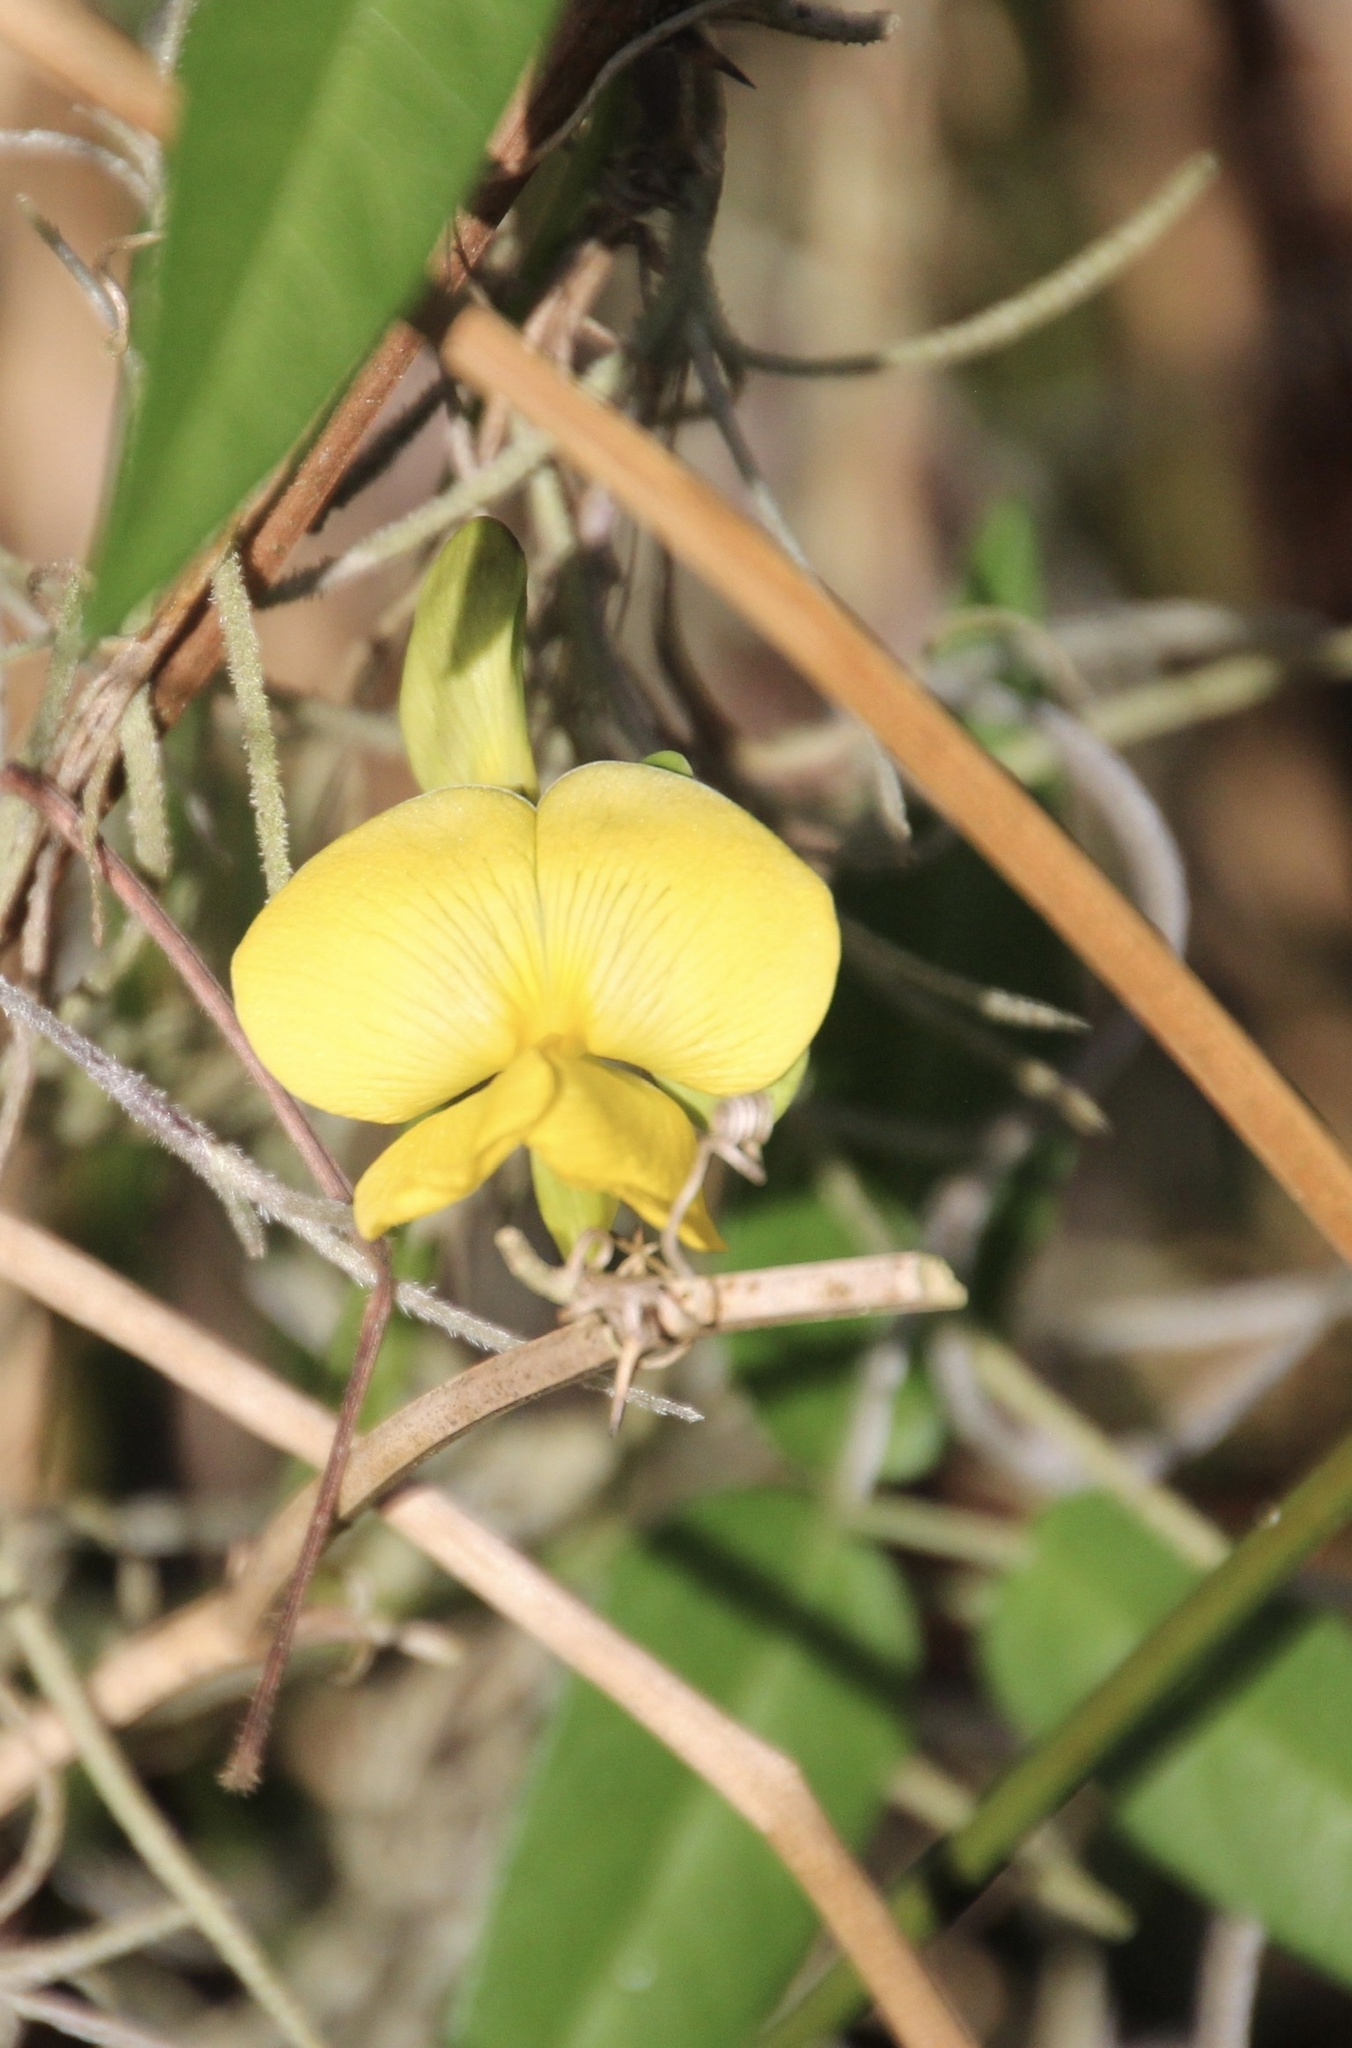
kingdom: Plantae
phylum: Tracheophyta
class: Magnoliopsida
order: Fabales
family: Fabaceae
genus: Vigna
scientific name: Vigna luteola
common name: Hairypod cowpea
